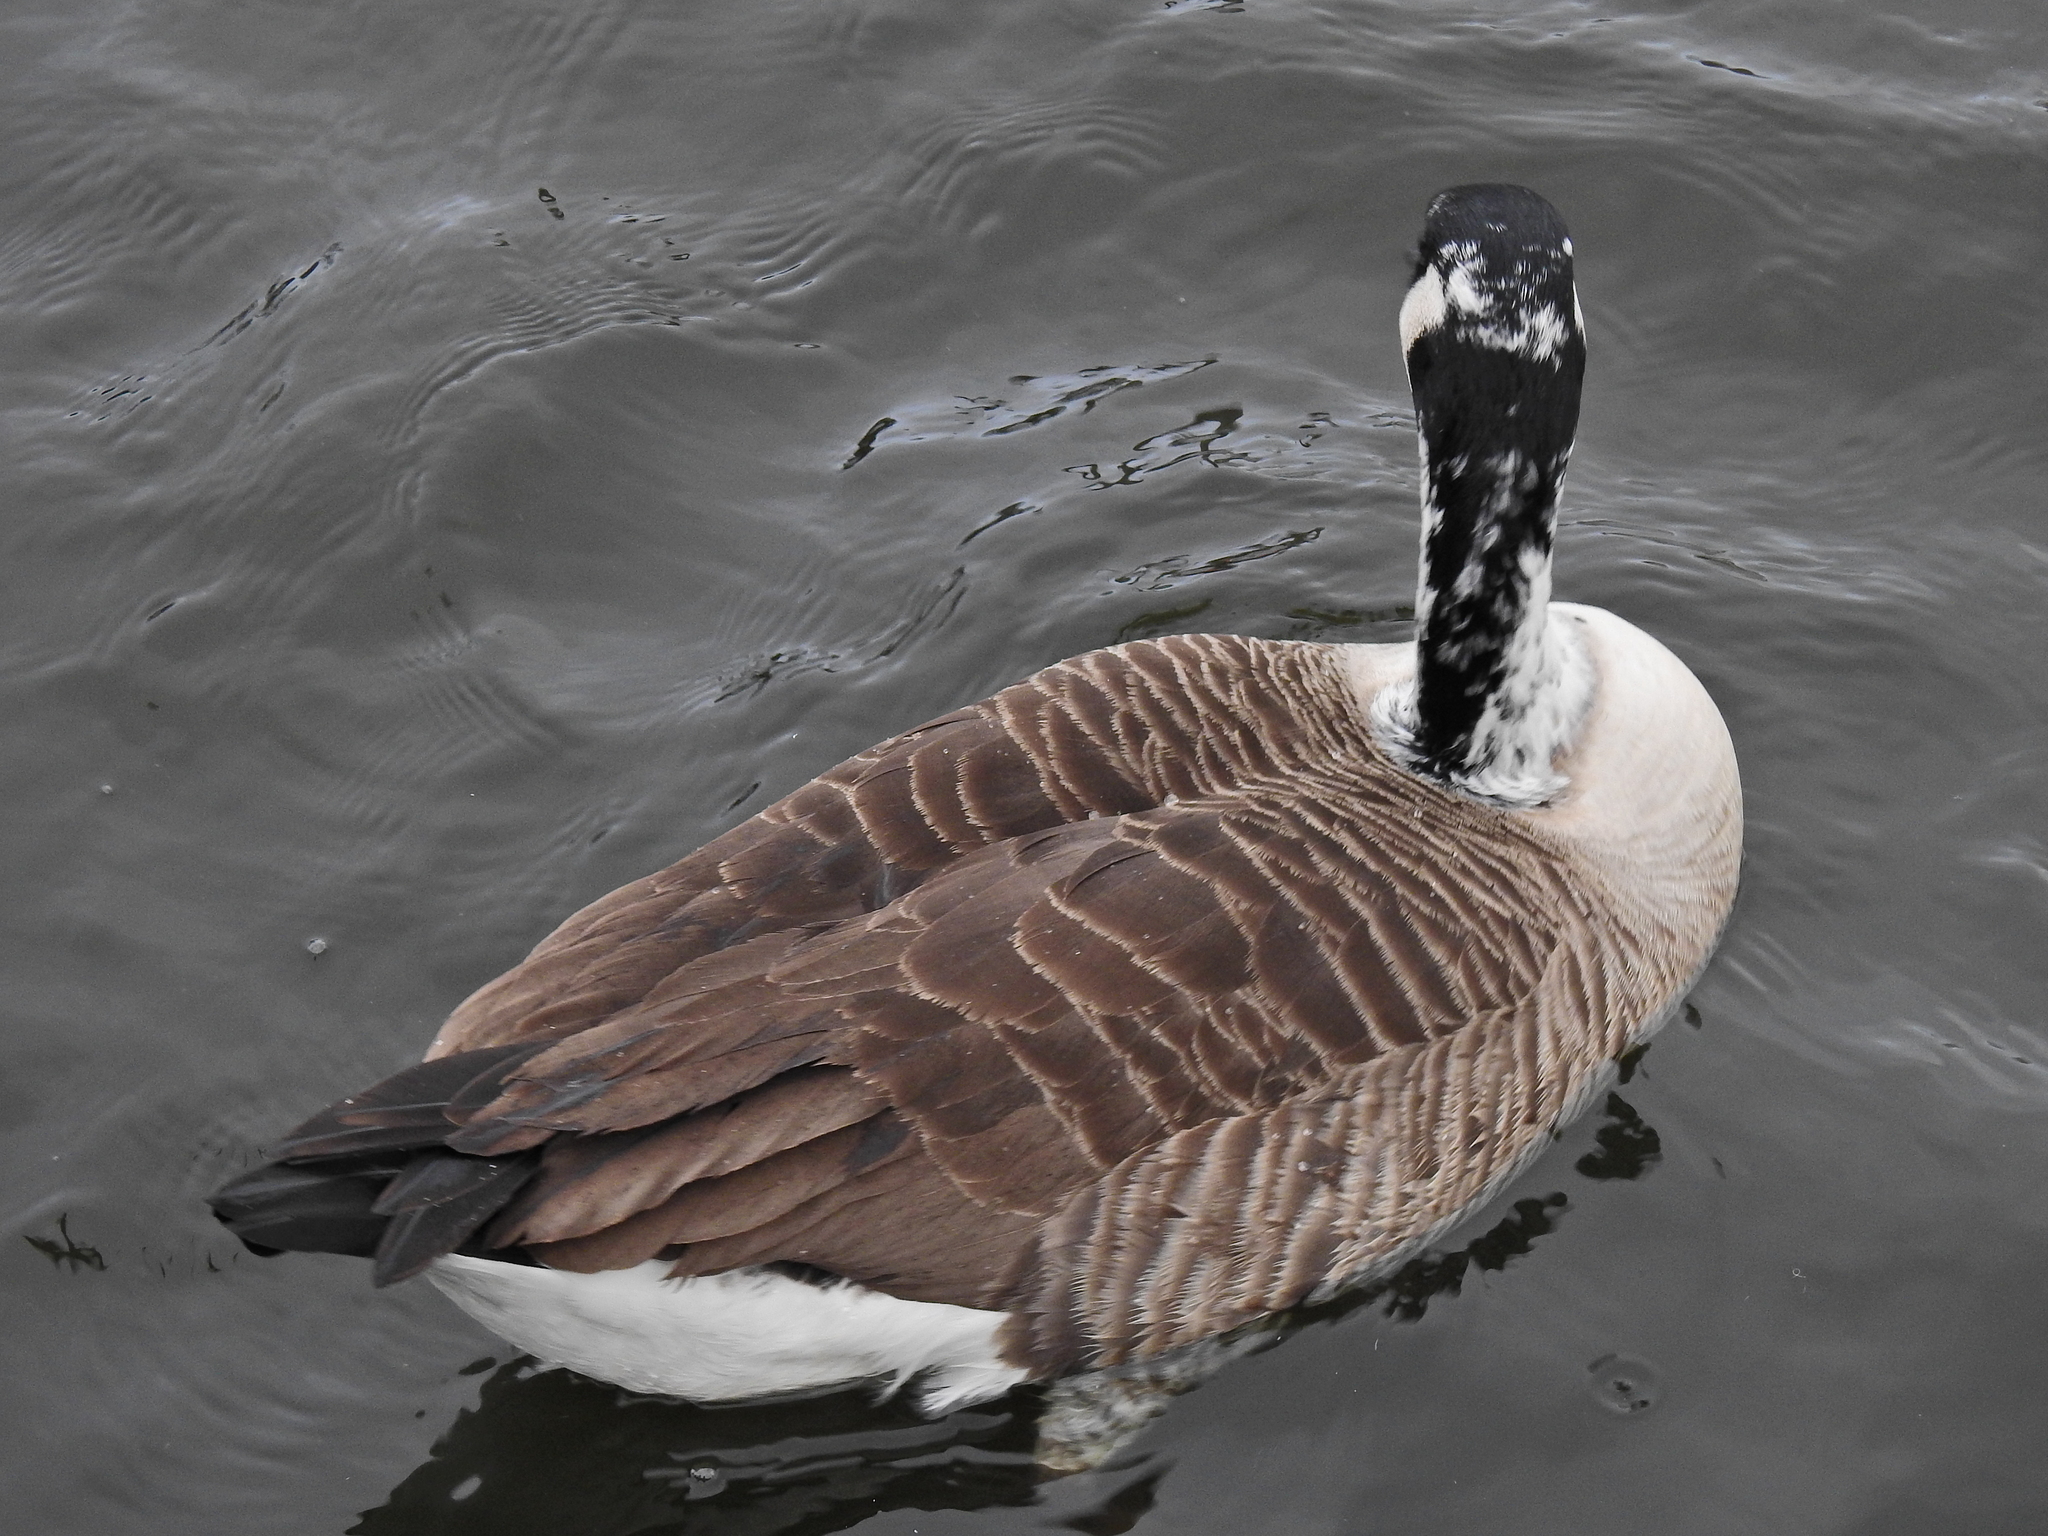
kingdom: Animalia
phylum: Chordata
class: Aves
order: Anseriformes
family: Anatidae
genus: Branta
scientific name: Branta canadensis
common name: Canada goose
